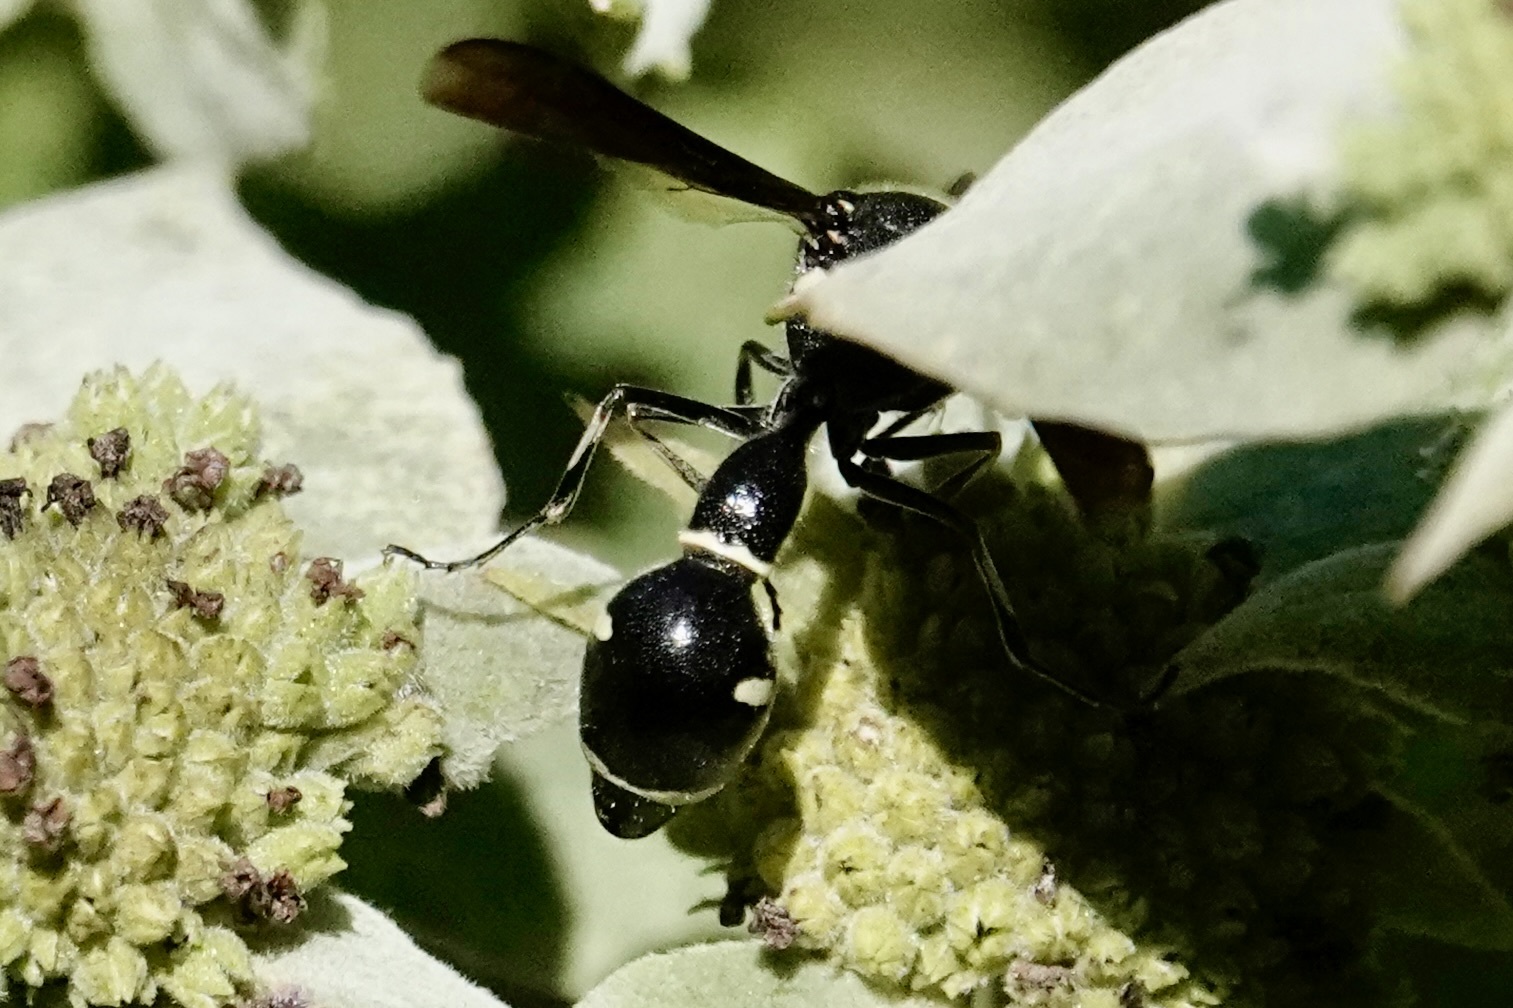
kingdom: Animalia
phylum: Arthropoda
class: Insecta
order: Hymenoptera
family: Vespidae
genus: Eumenes
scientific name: Eumenes fraternus
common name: Fraternal potter wasp
